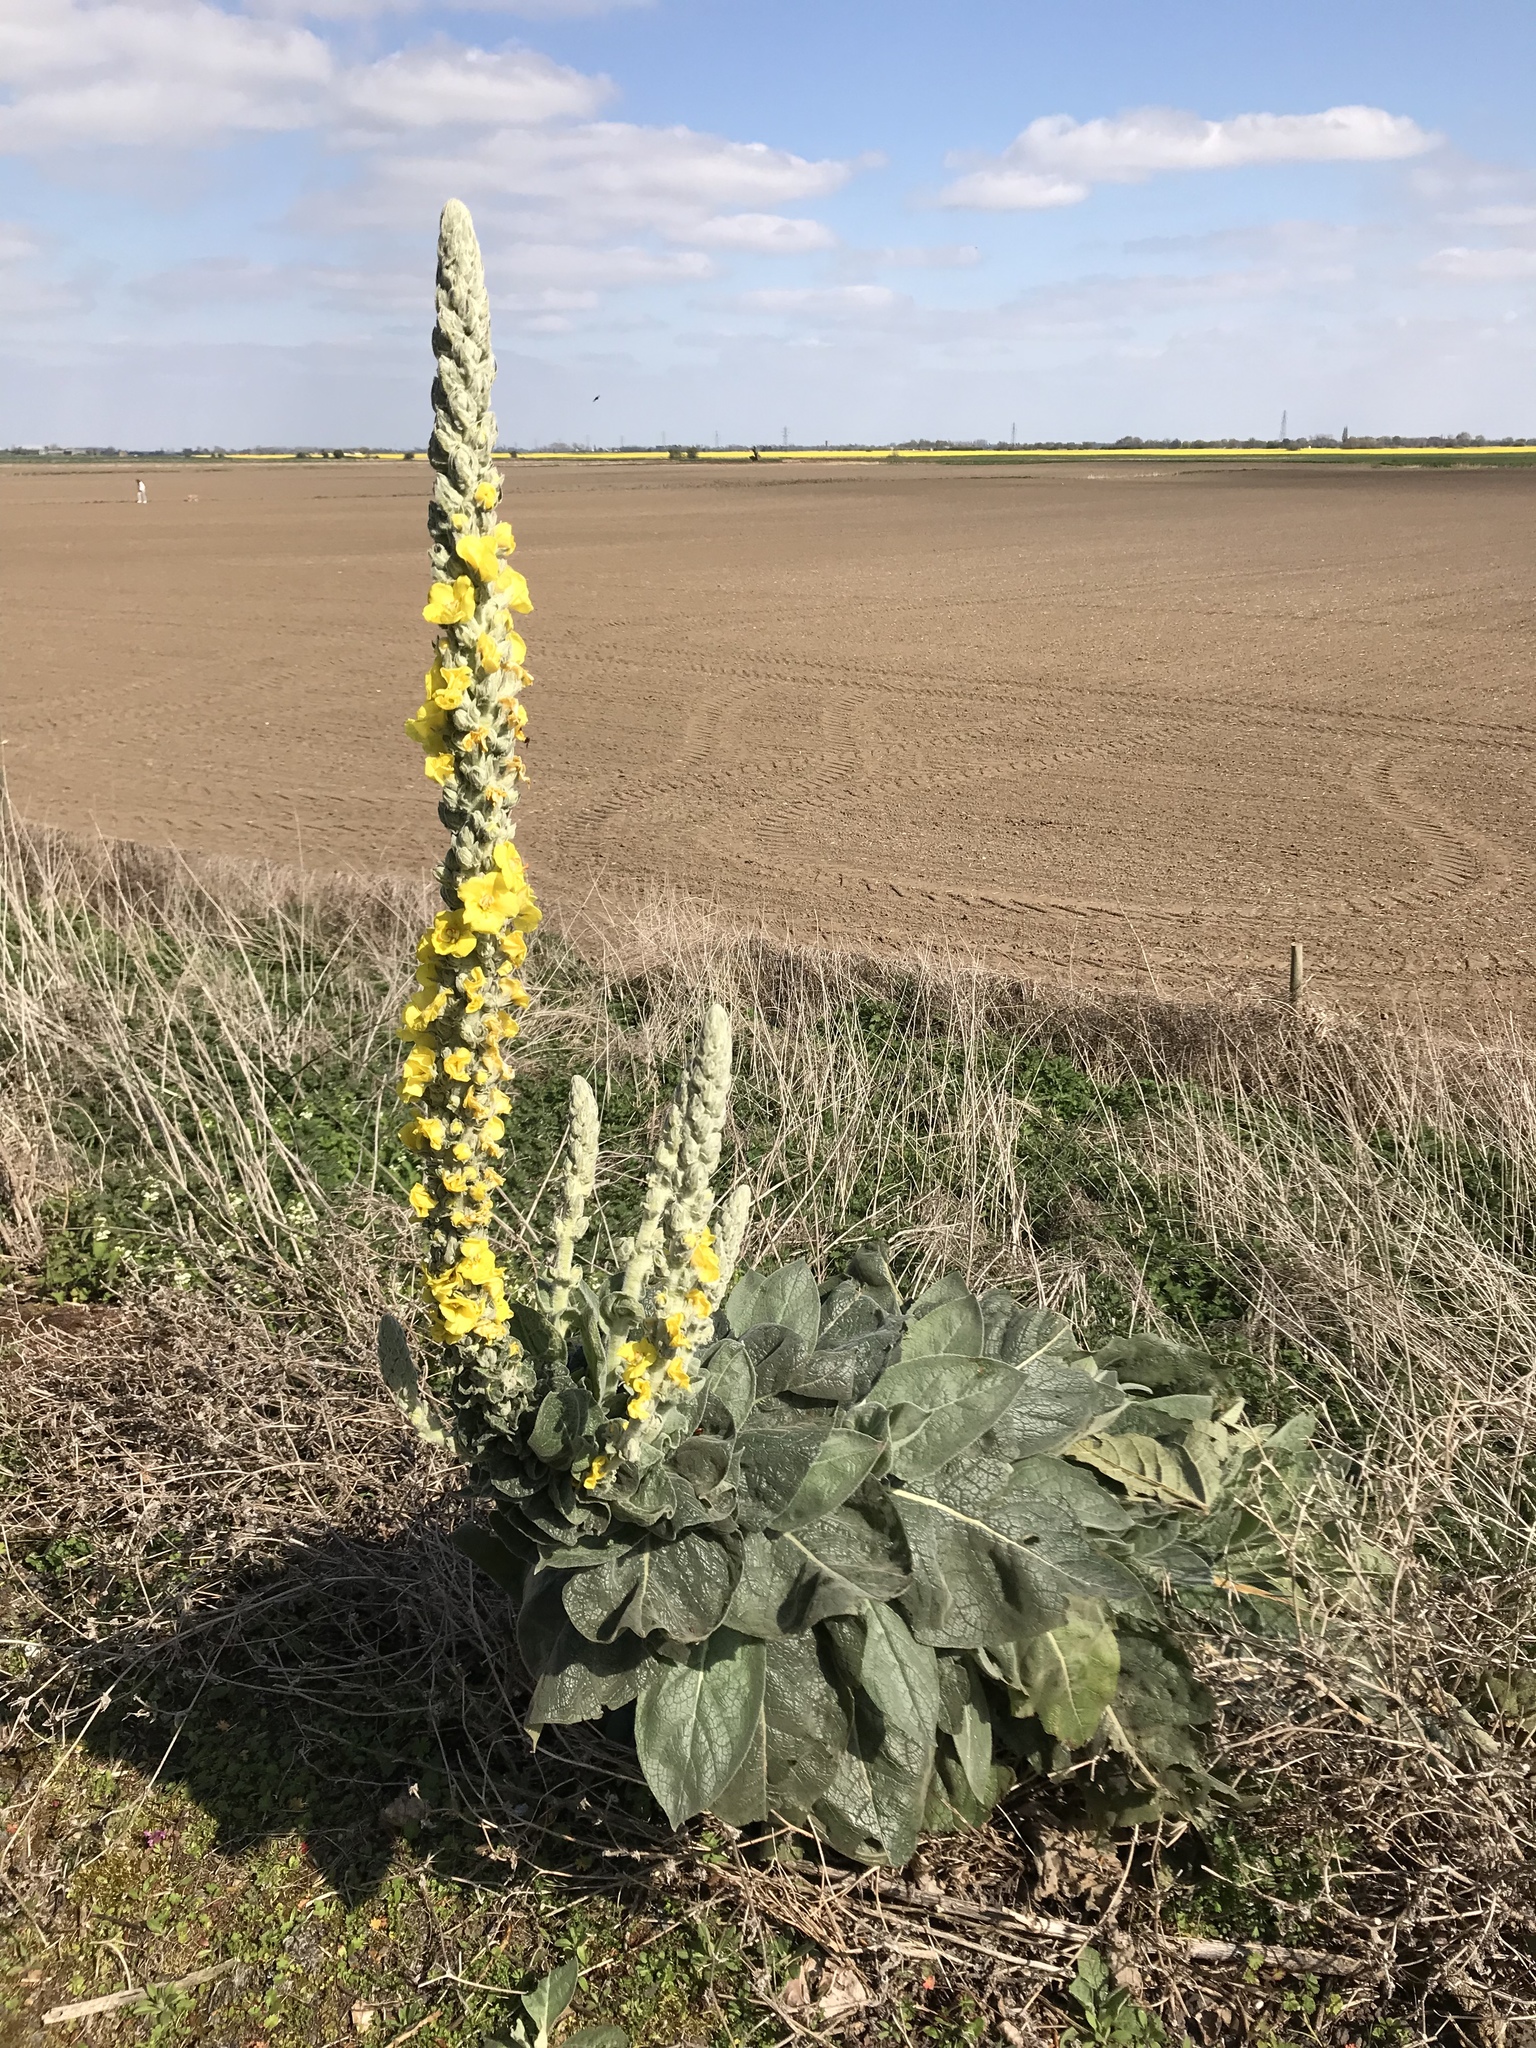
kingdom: Plantae
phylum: Tracheophyta
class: Magnoliopsida
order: Lamiales
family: Scrophulariaceae
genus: Verbascum
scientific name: Verbascum thapsus
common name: Common mullein
